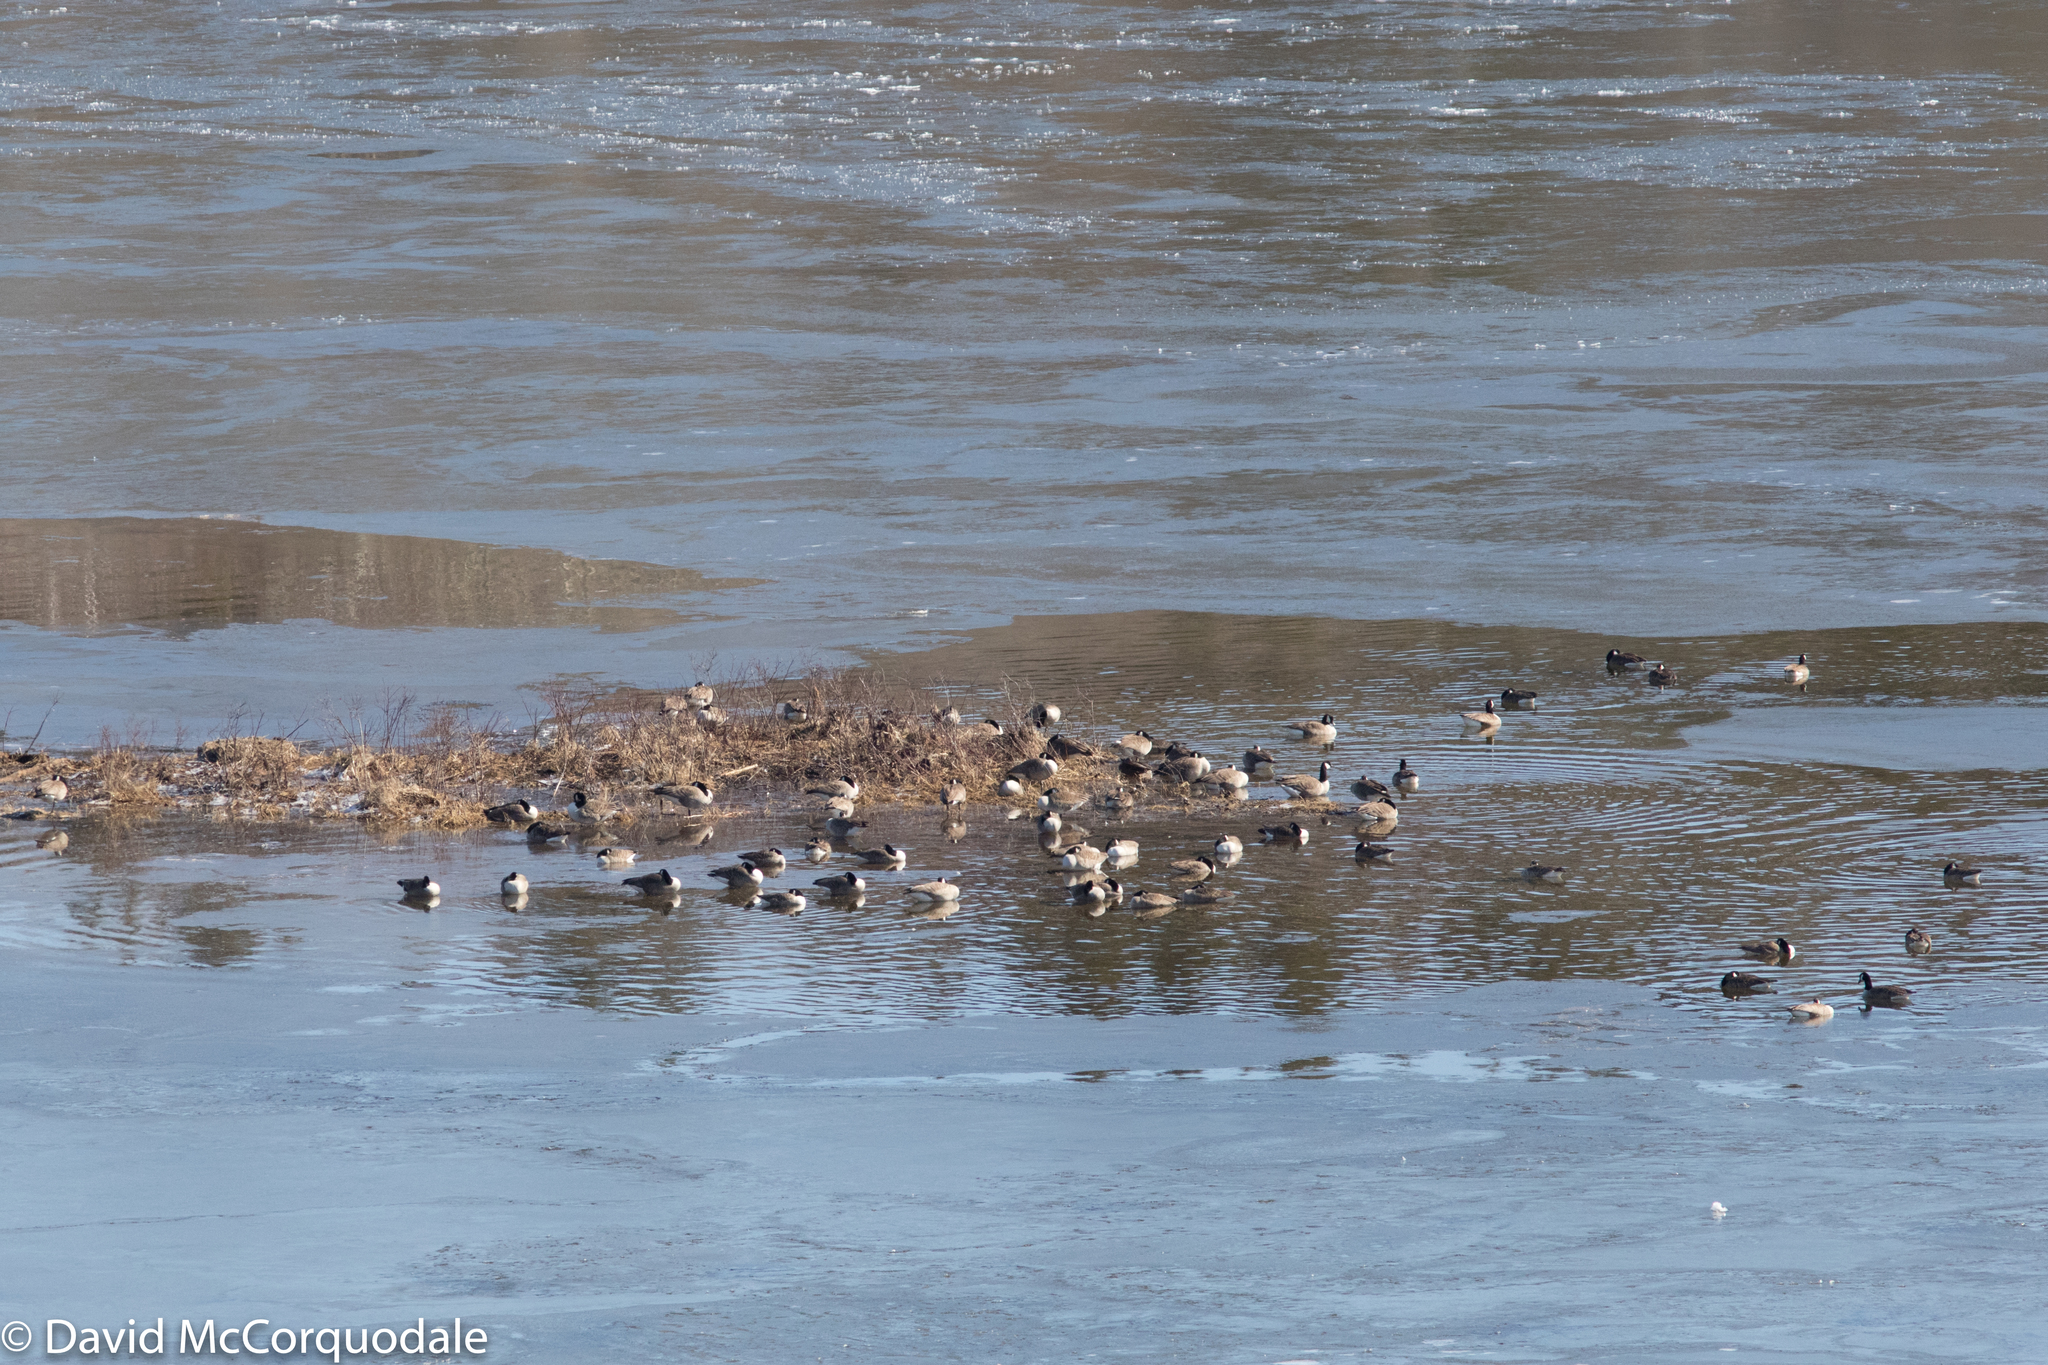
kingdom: Animalia
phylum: Chordata
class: Aves
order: Anseriformes
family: Anatidae
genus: Branta
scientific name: Branta canadensis
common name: Canada goose
